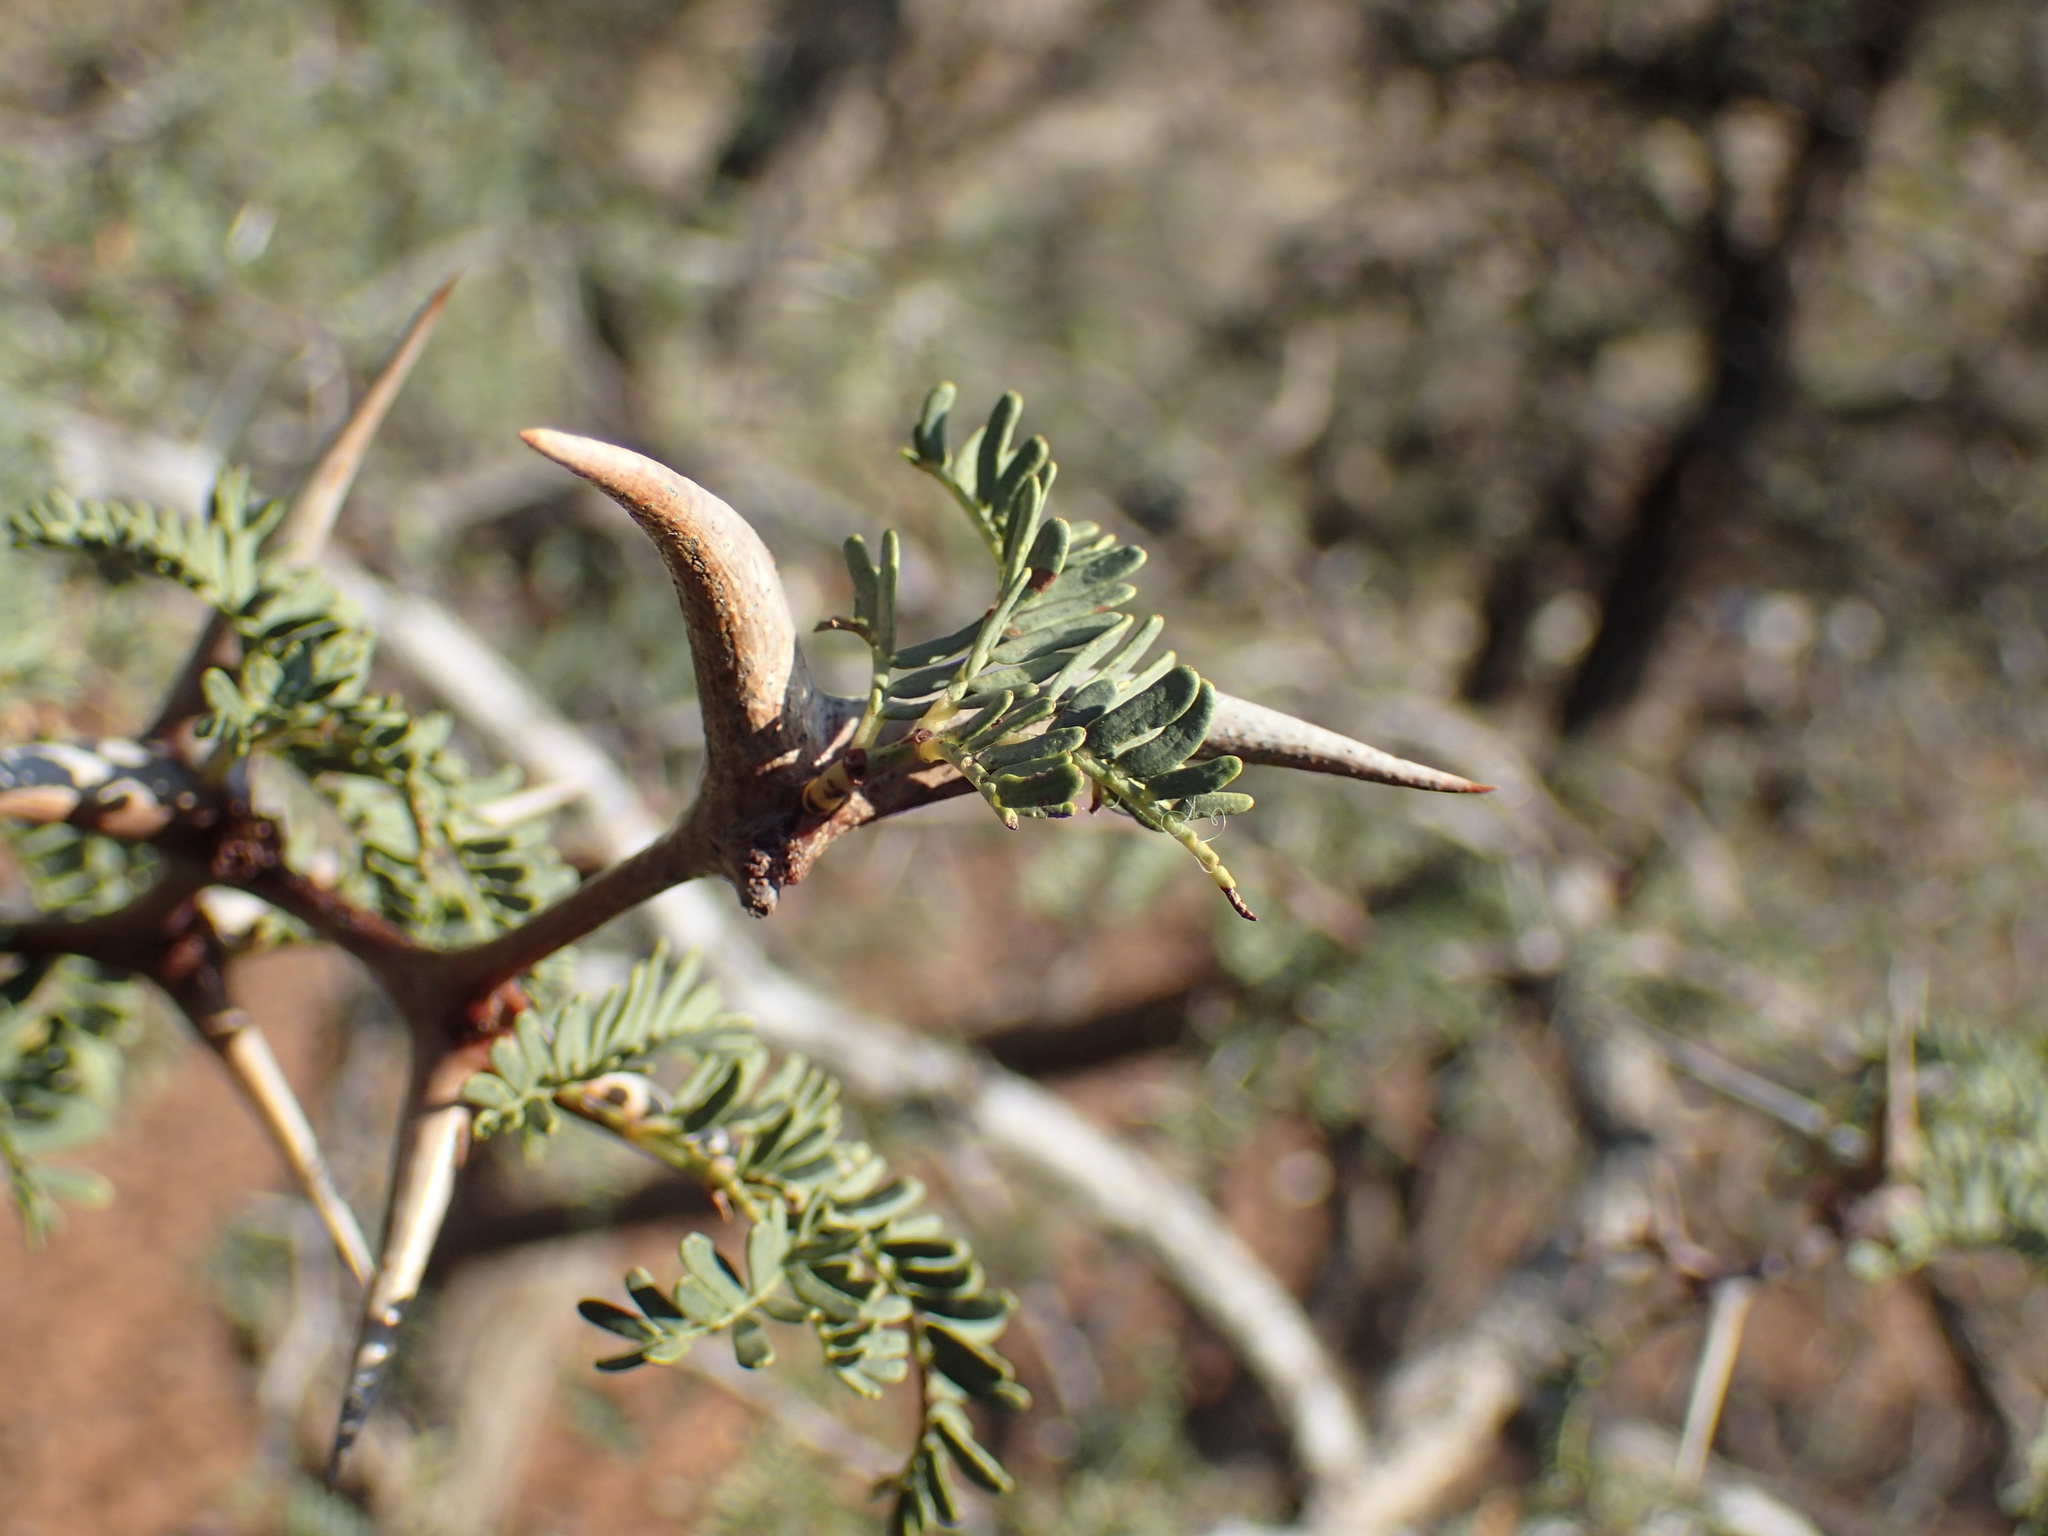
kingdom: Plantae
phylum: Tracheophyta
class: Magnoliopsida
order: Fabales
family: Fabaceae
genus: Vachellia
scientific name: Vachellia erioloba
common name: Camel thorn
